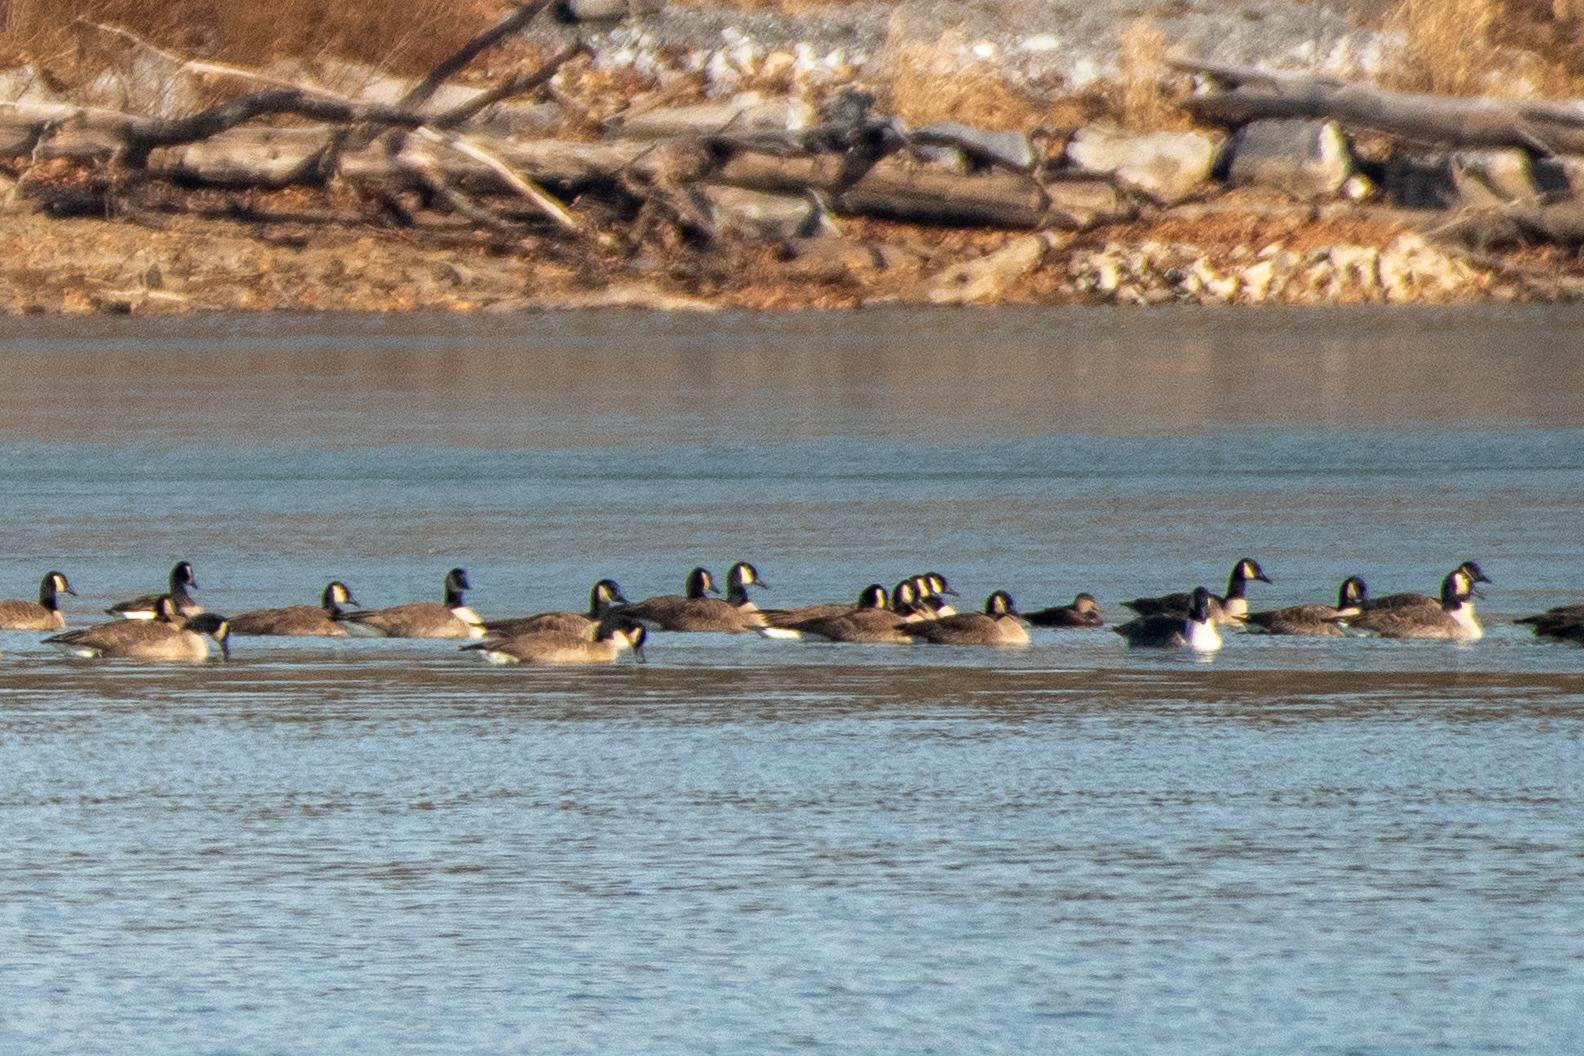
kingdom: Animalia
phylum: Chordata
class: Aves
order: Anseriformes
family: Anatidae
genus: Anas
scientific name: Anas rubripes
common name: American black duck
